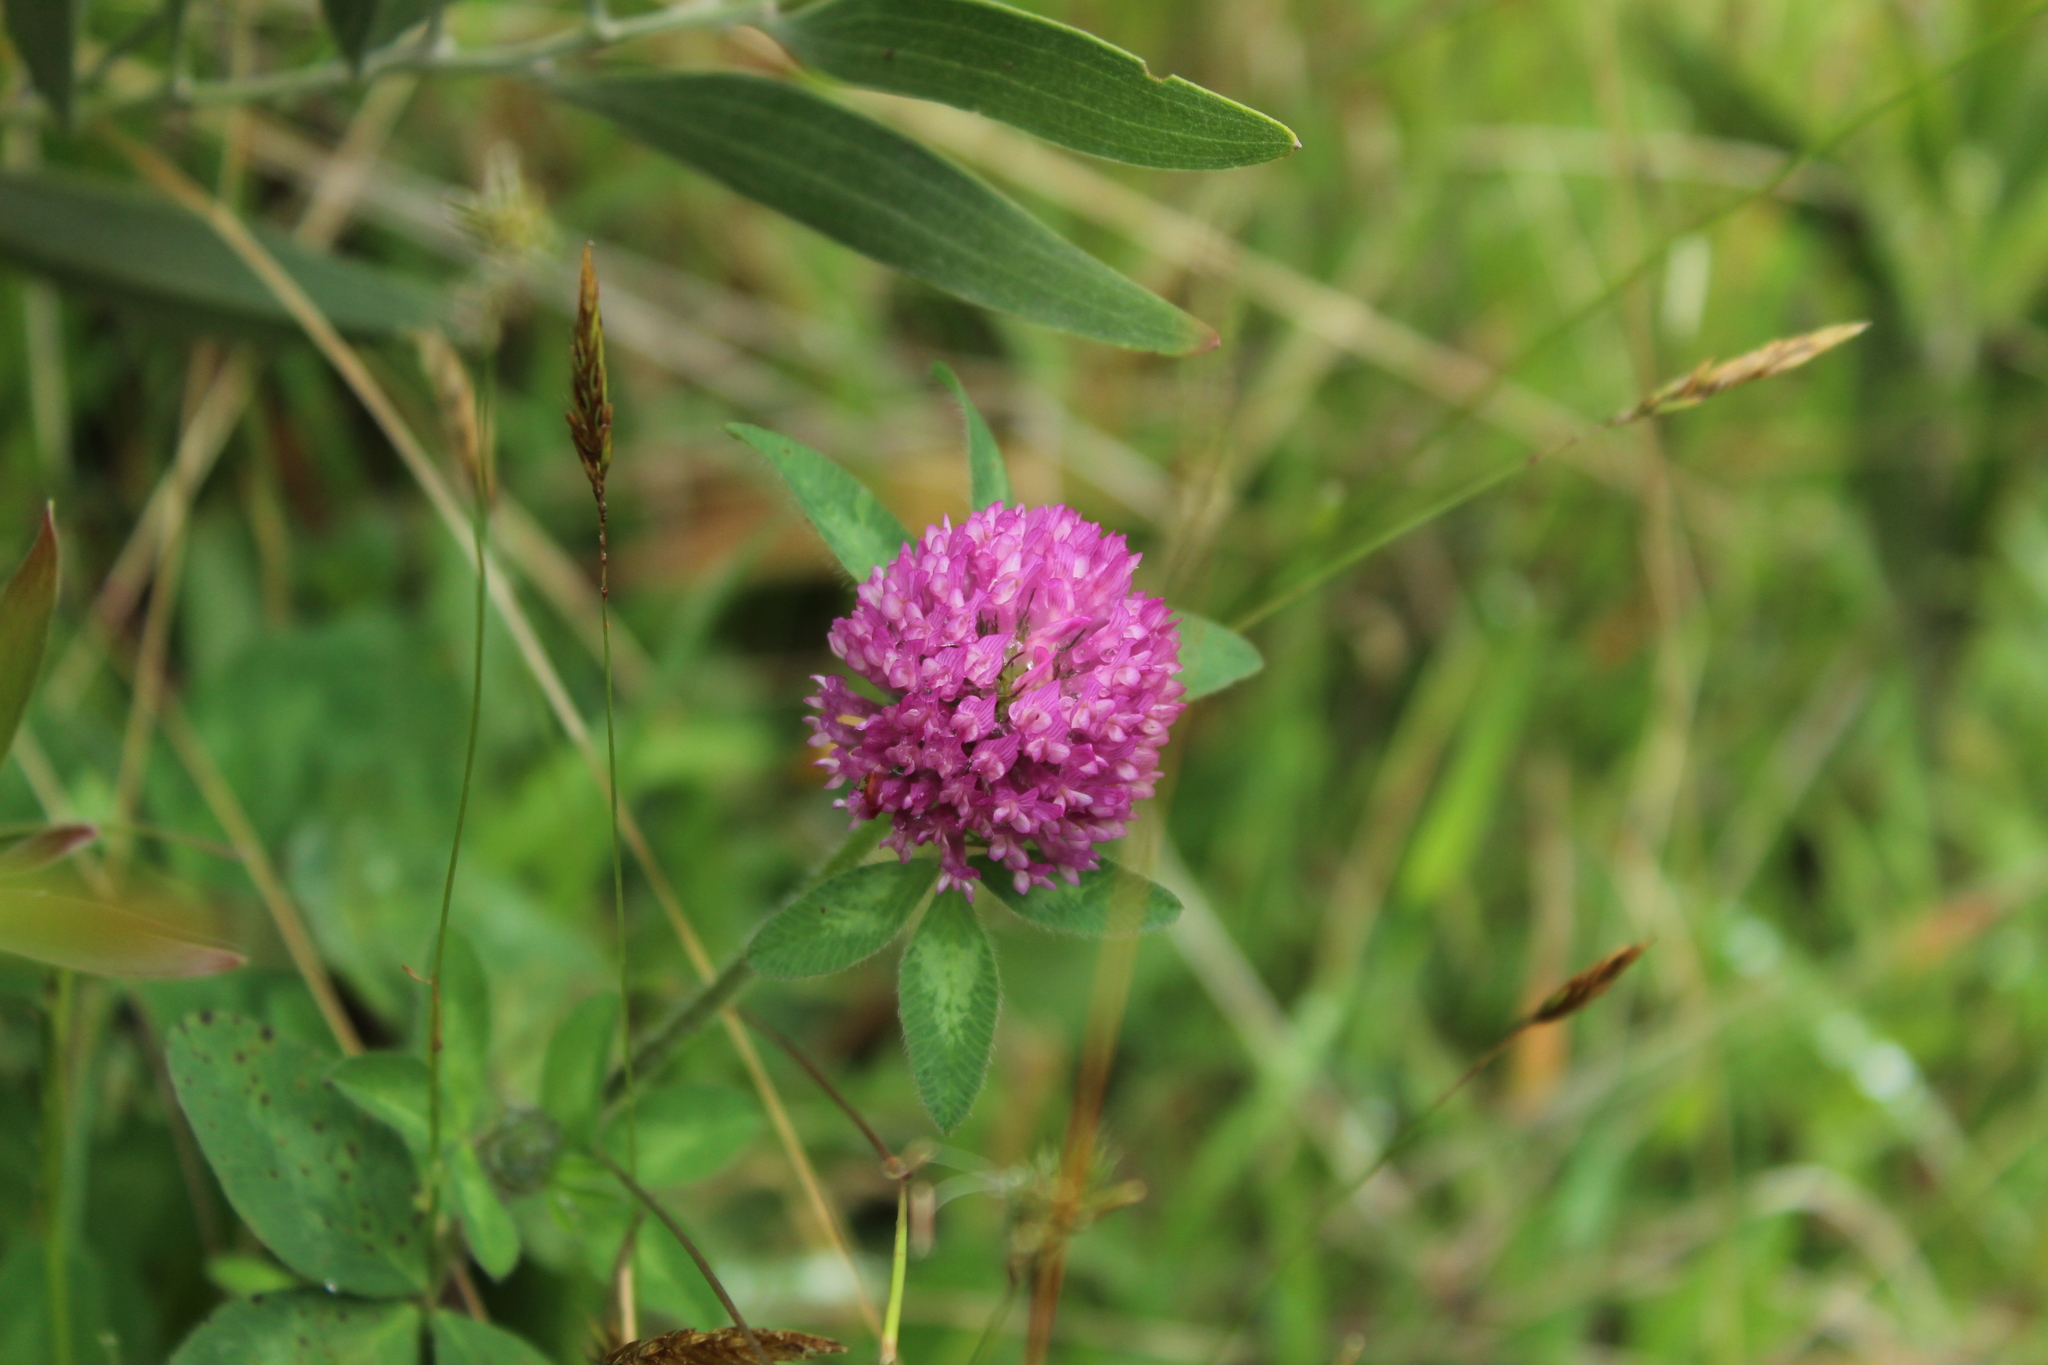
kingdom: Plantae
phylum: Tracheophyta
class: Magnoliopsida
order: Fabales
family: Fabaceae
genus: Trifolium
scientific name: Trifolium pratense
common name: Red clover
